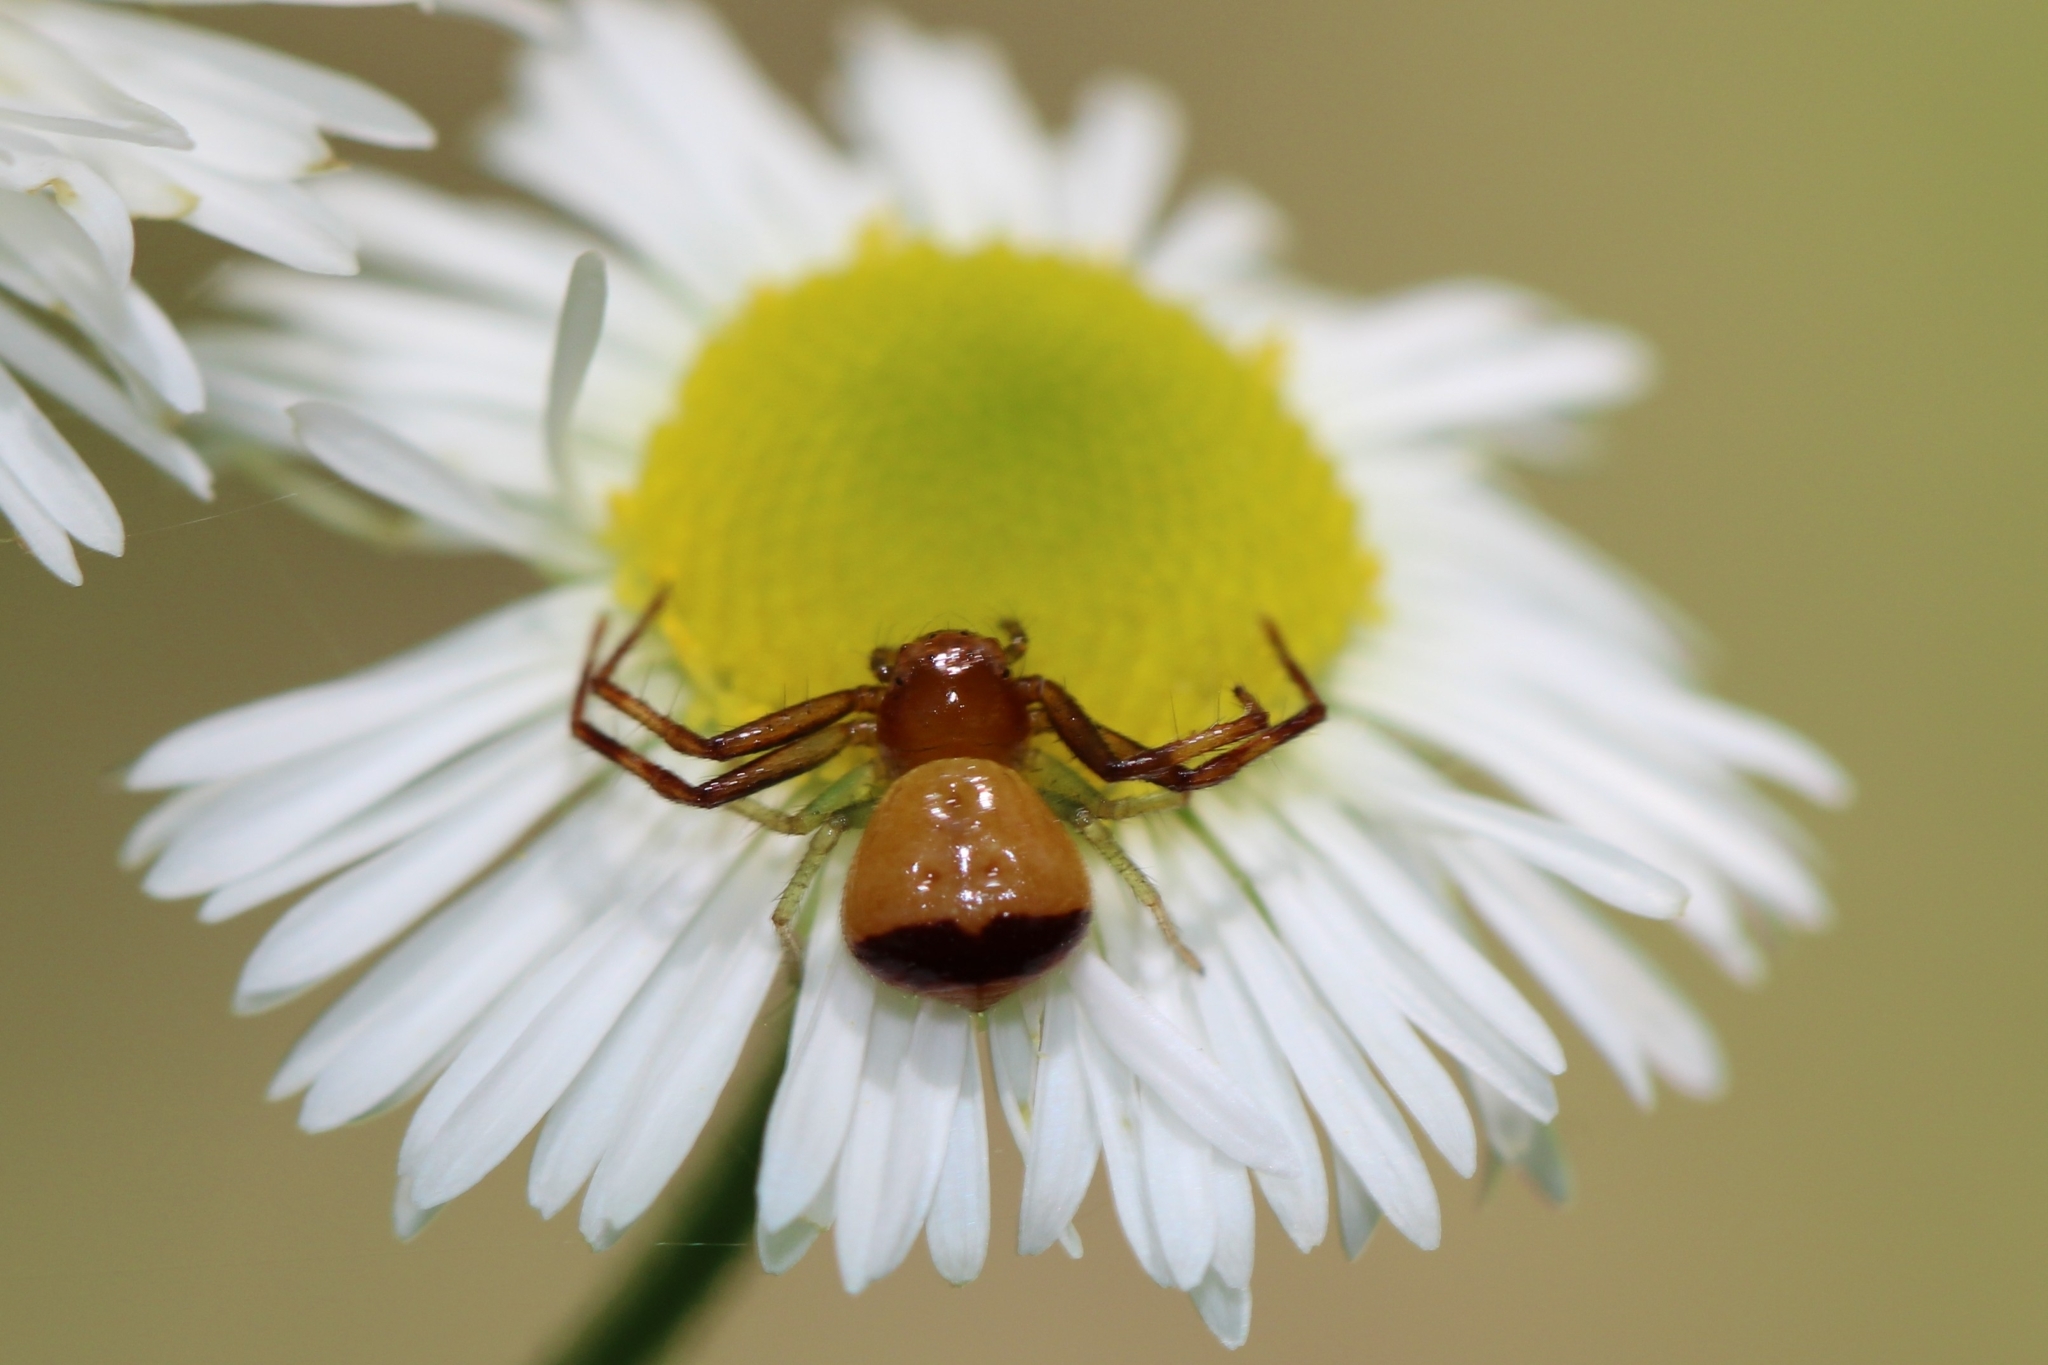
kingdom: Animalia
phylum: Arthropoda
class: Arachnida
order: Araneae
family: Thomisidae
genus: Synema
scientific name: Synema parvulum
